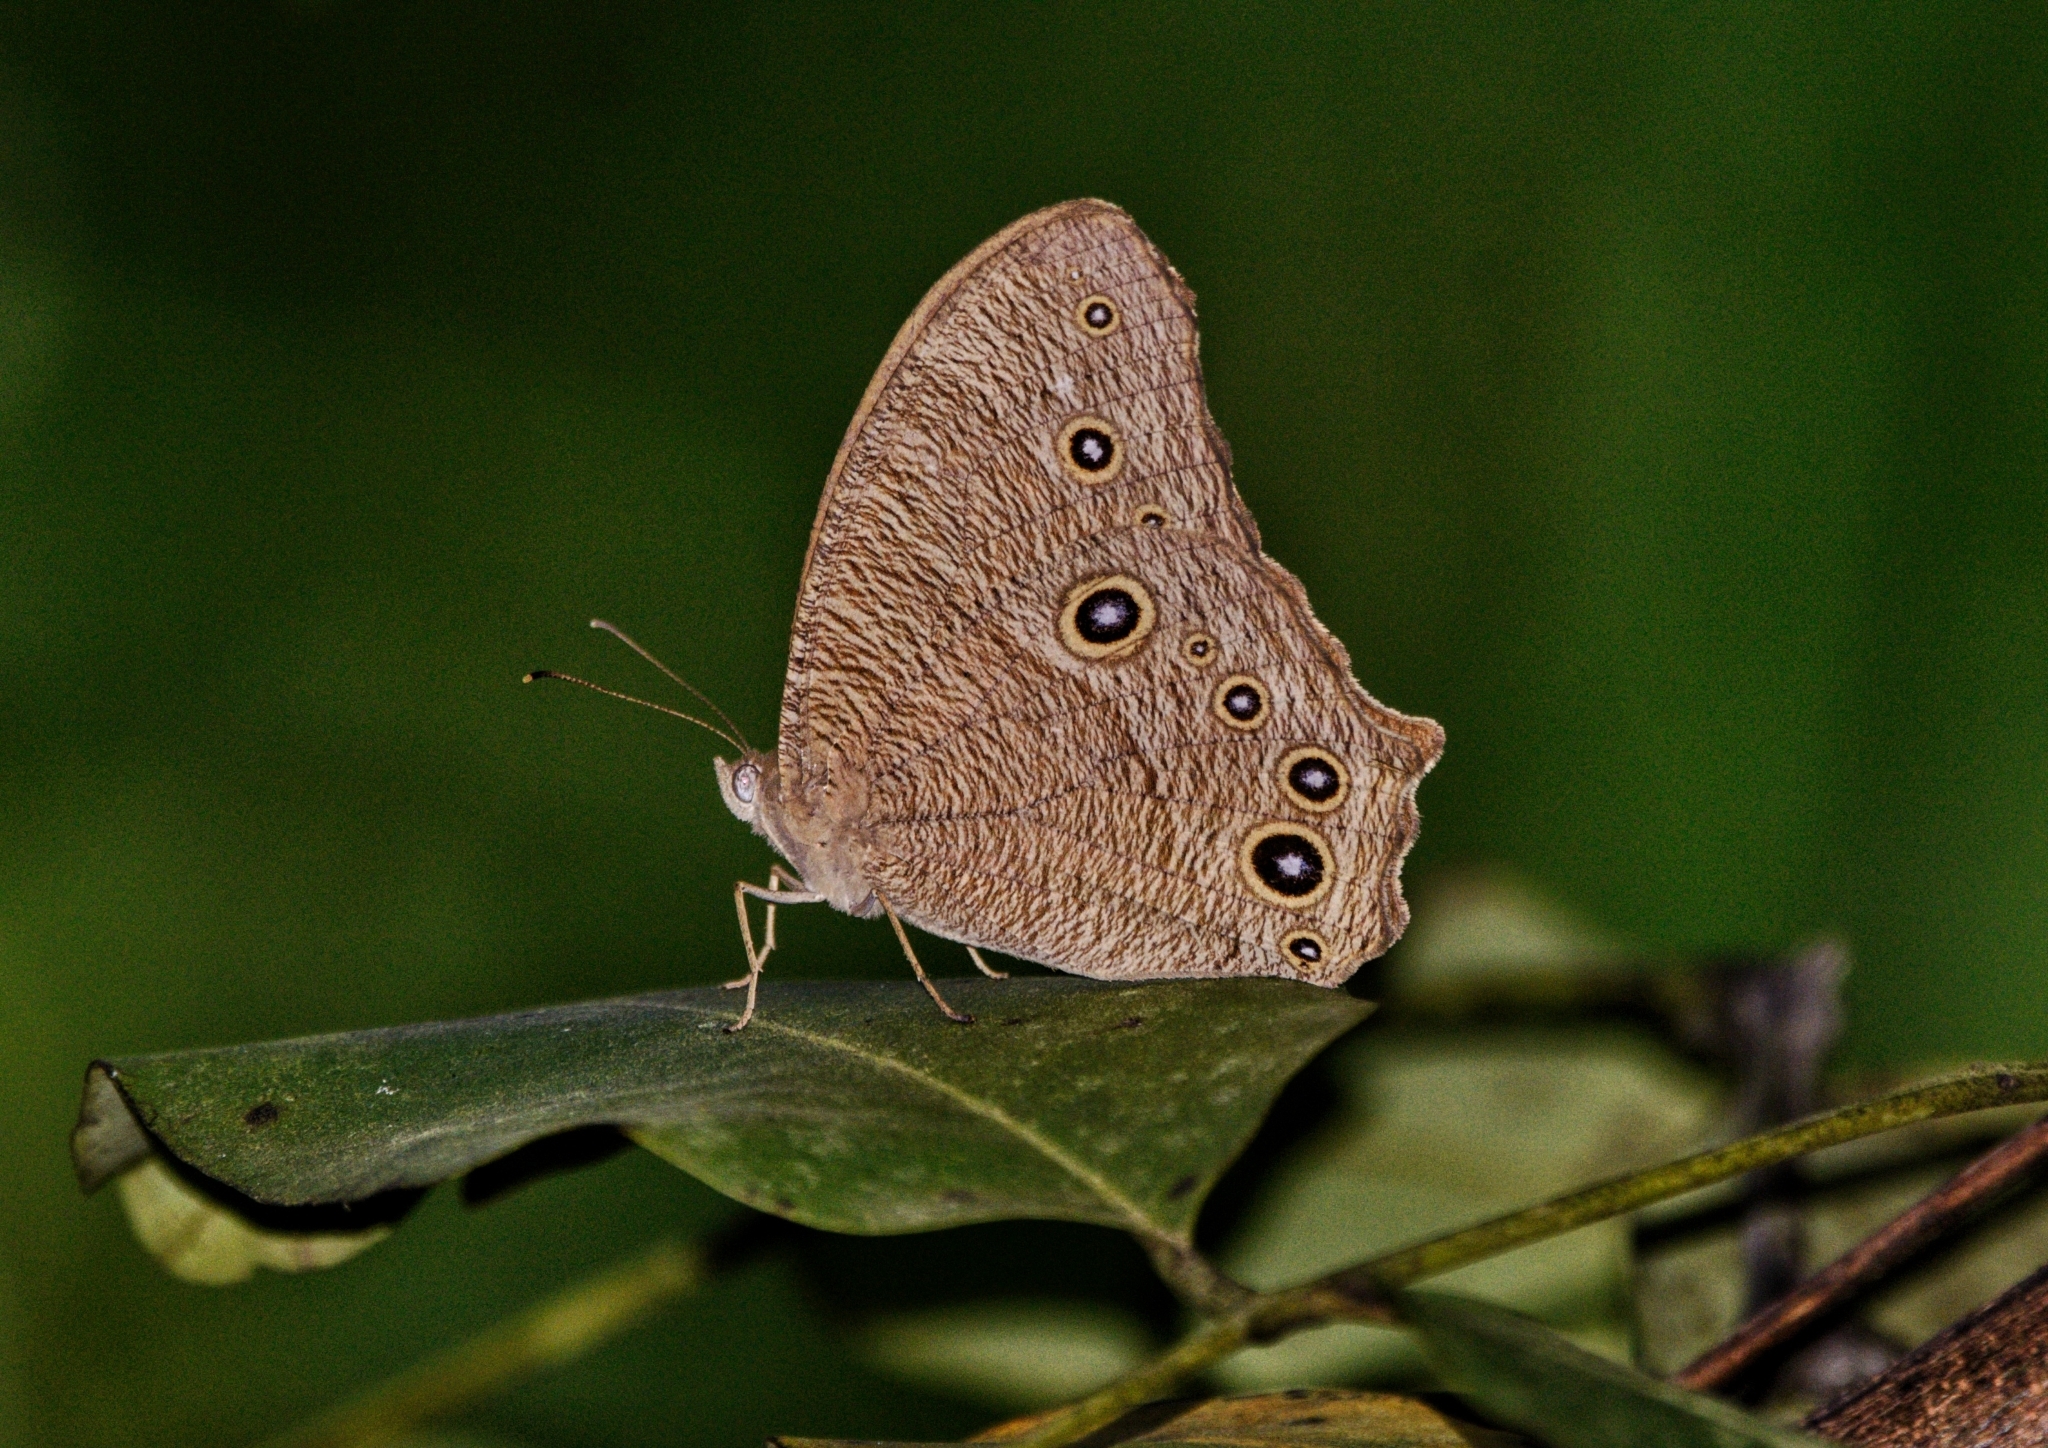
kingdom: Animalia
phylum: Arthropoda
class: Insecta
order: Lepidoptera
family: Nymphalidae
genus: Melanitis
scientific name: Melanitis leda
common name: Twilight brown
